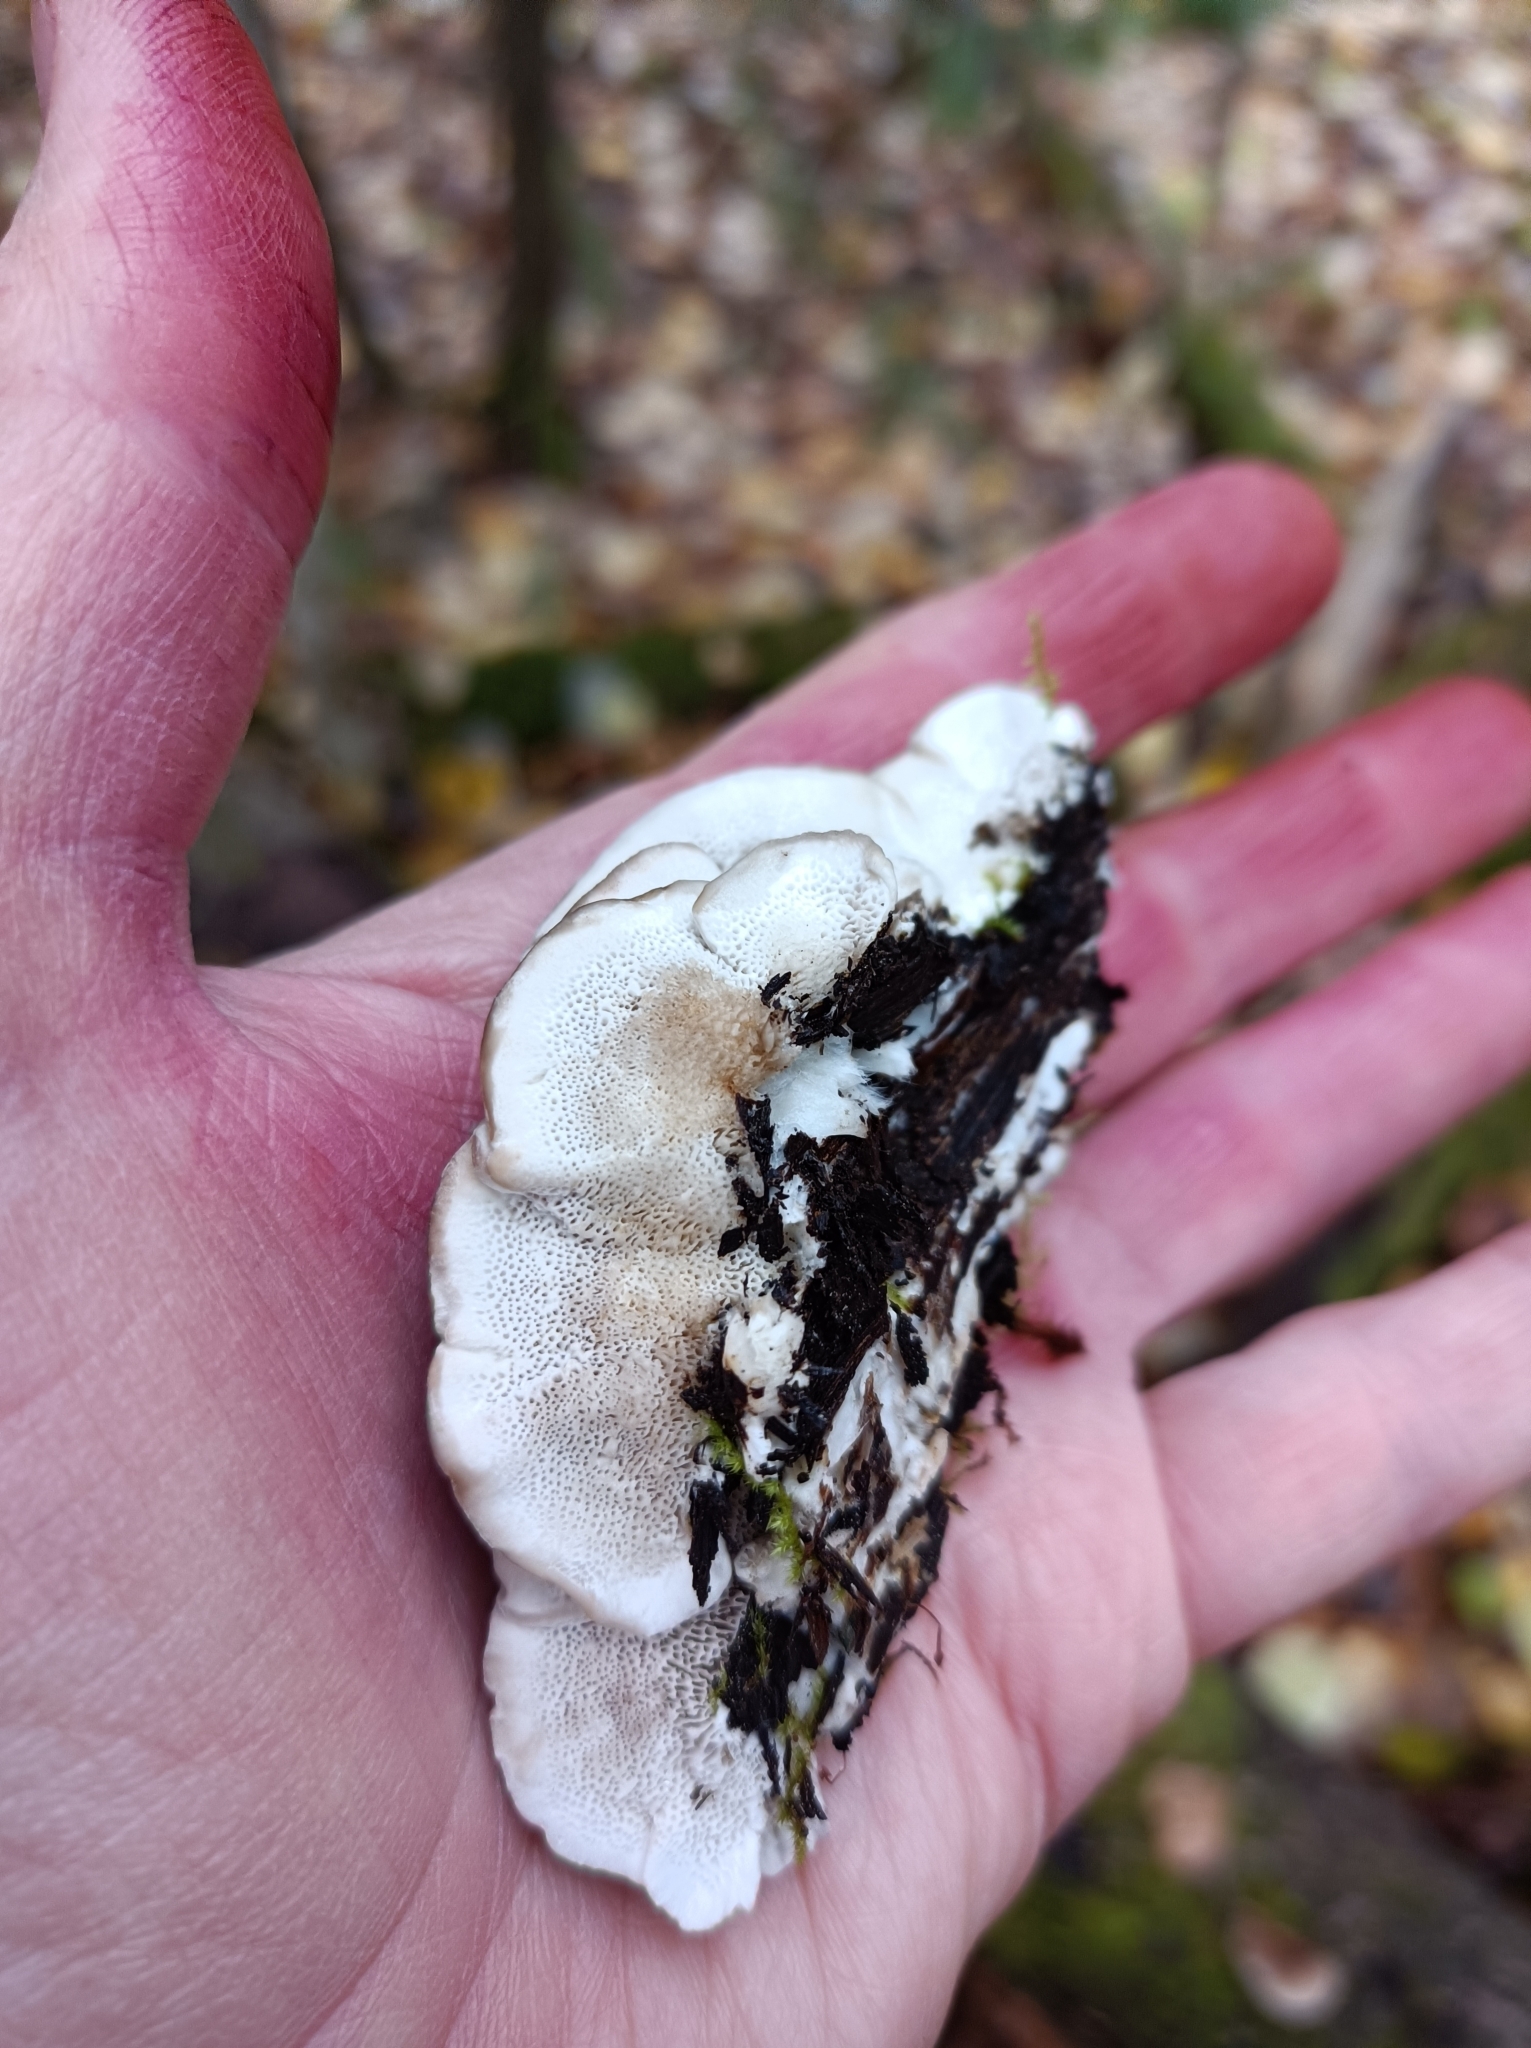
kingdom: Fungi
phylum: Basidiomycota
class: Agaricomycetes
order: Polyporales
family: Polyporaceae
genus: Trametes
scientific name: Trametes versicolor
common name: Turkeytail
